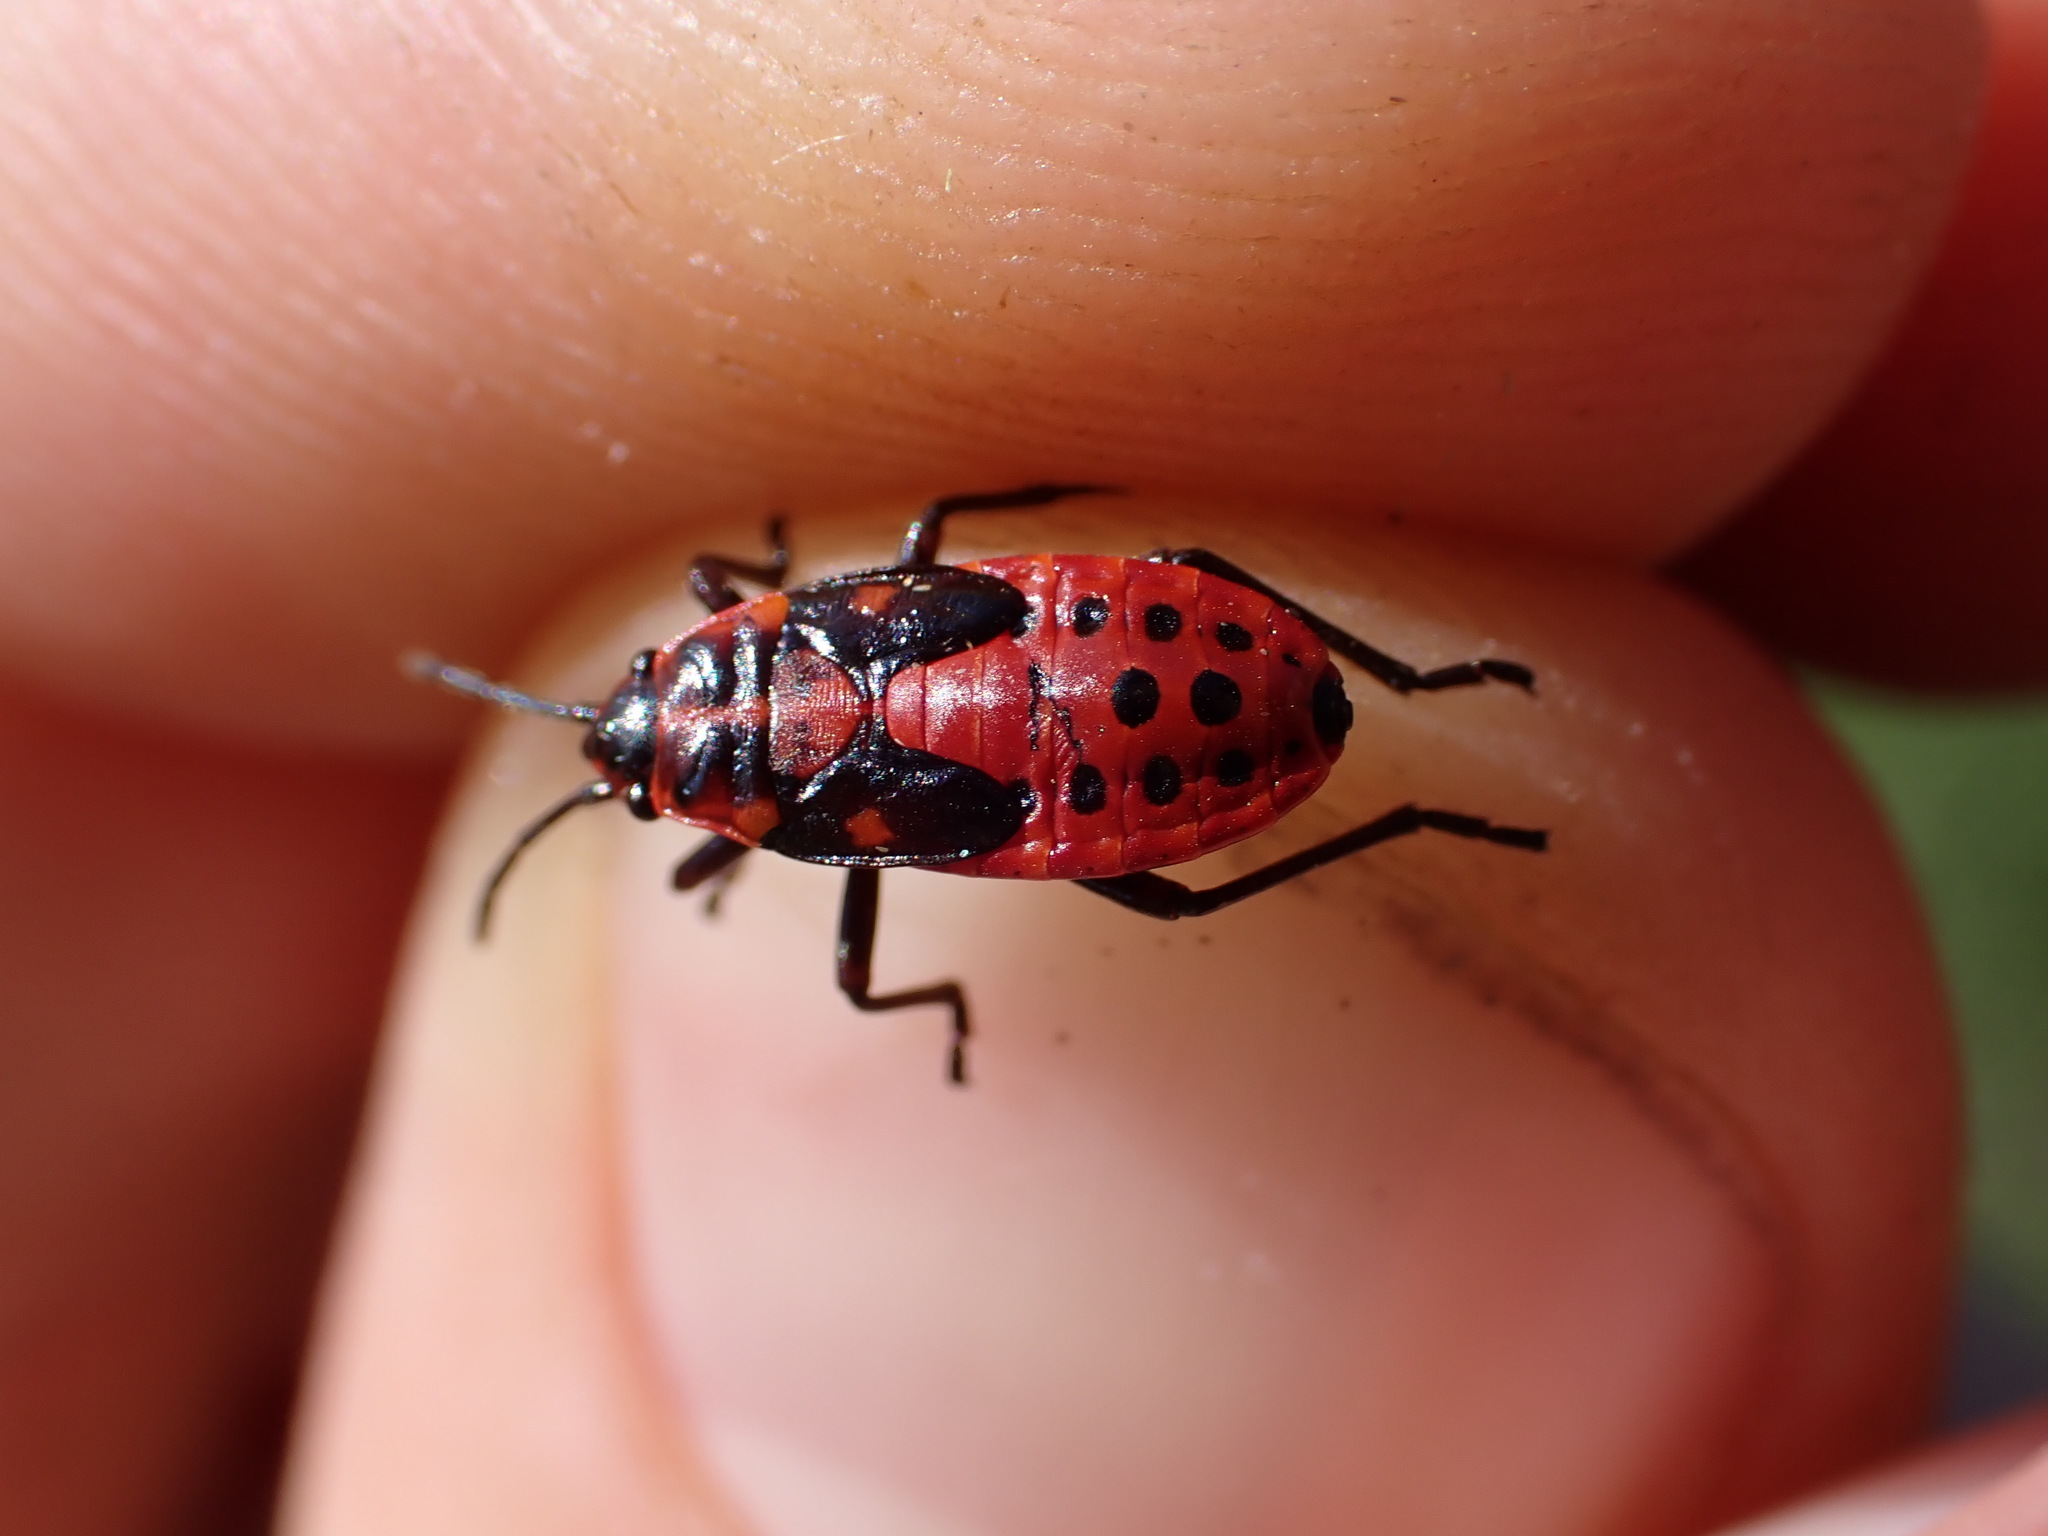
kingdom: Animalia
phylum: Arthropoda
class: Insecta
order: Hemiptera
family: Lygaeidae
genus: Spilostethus
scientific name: Spilostethus saxatilis
